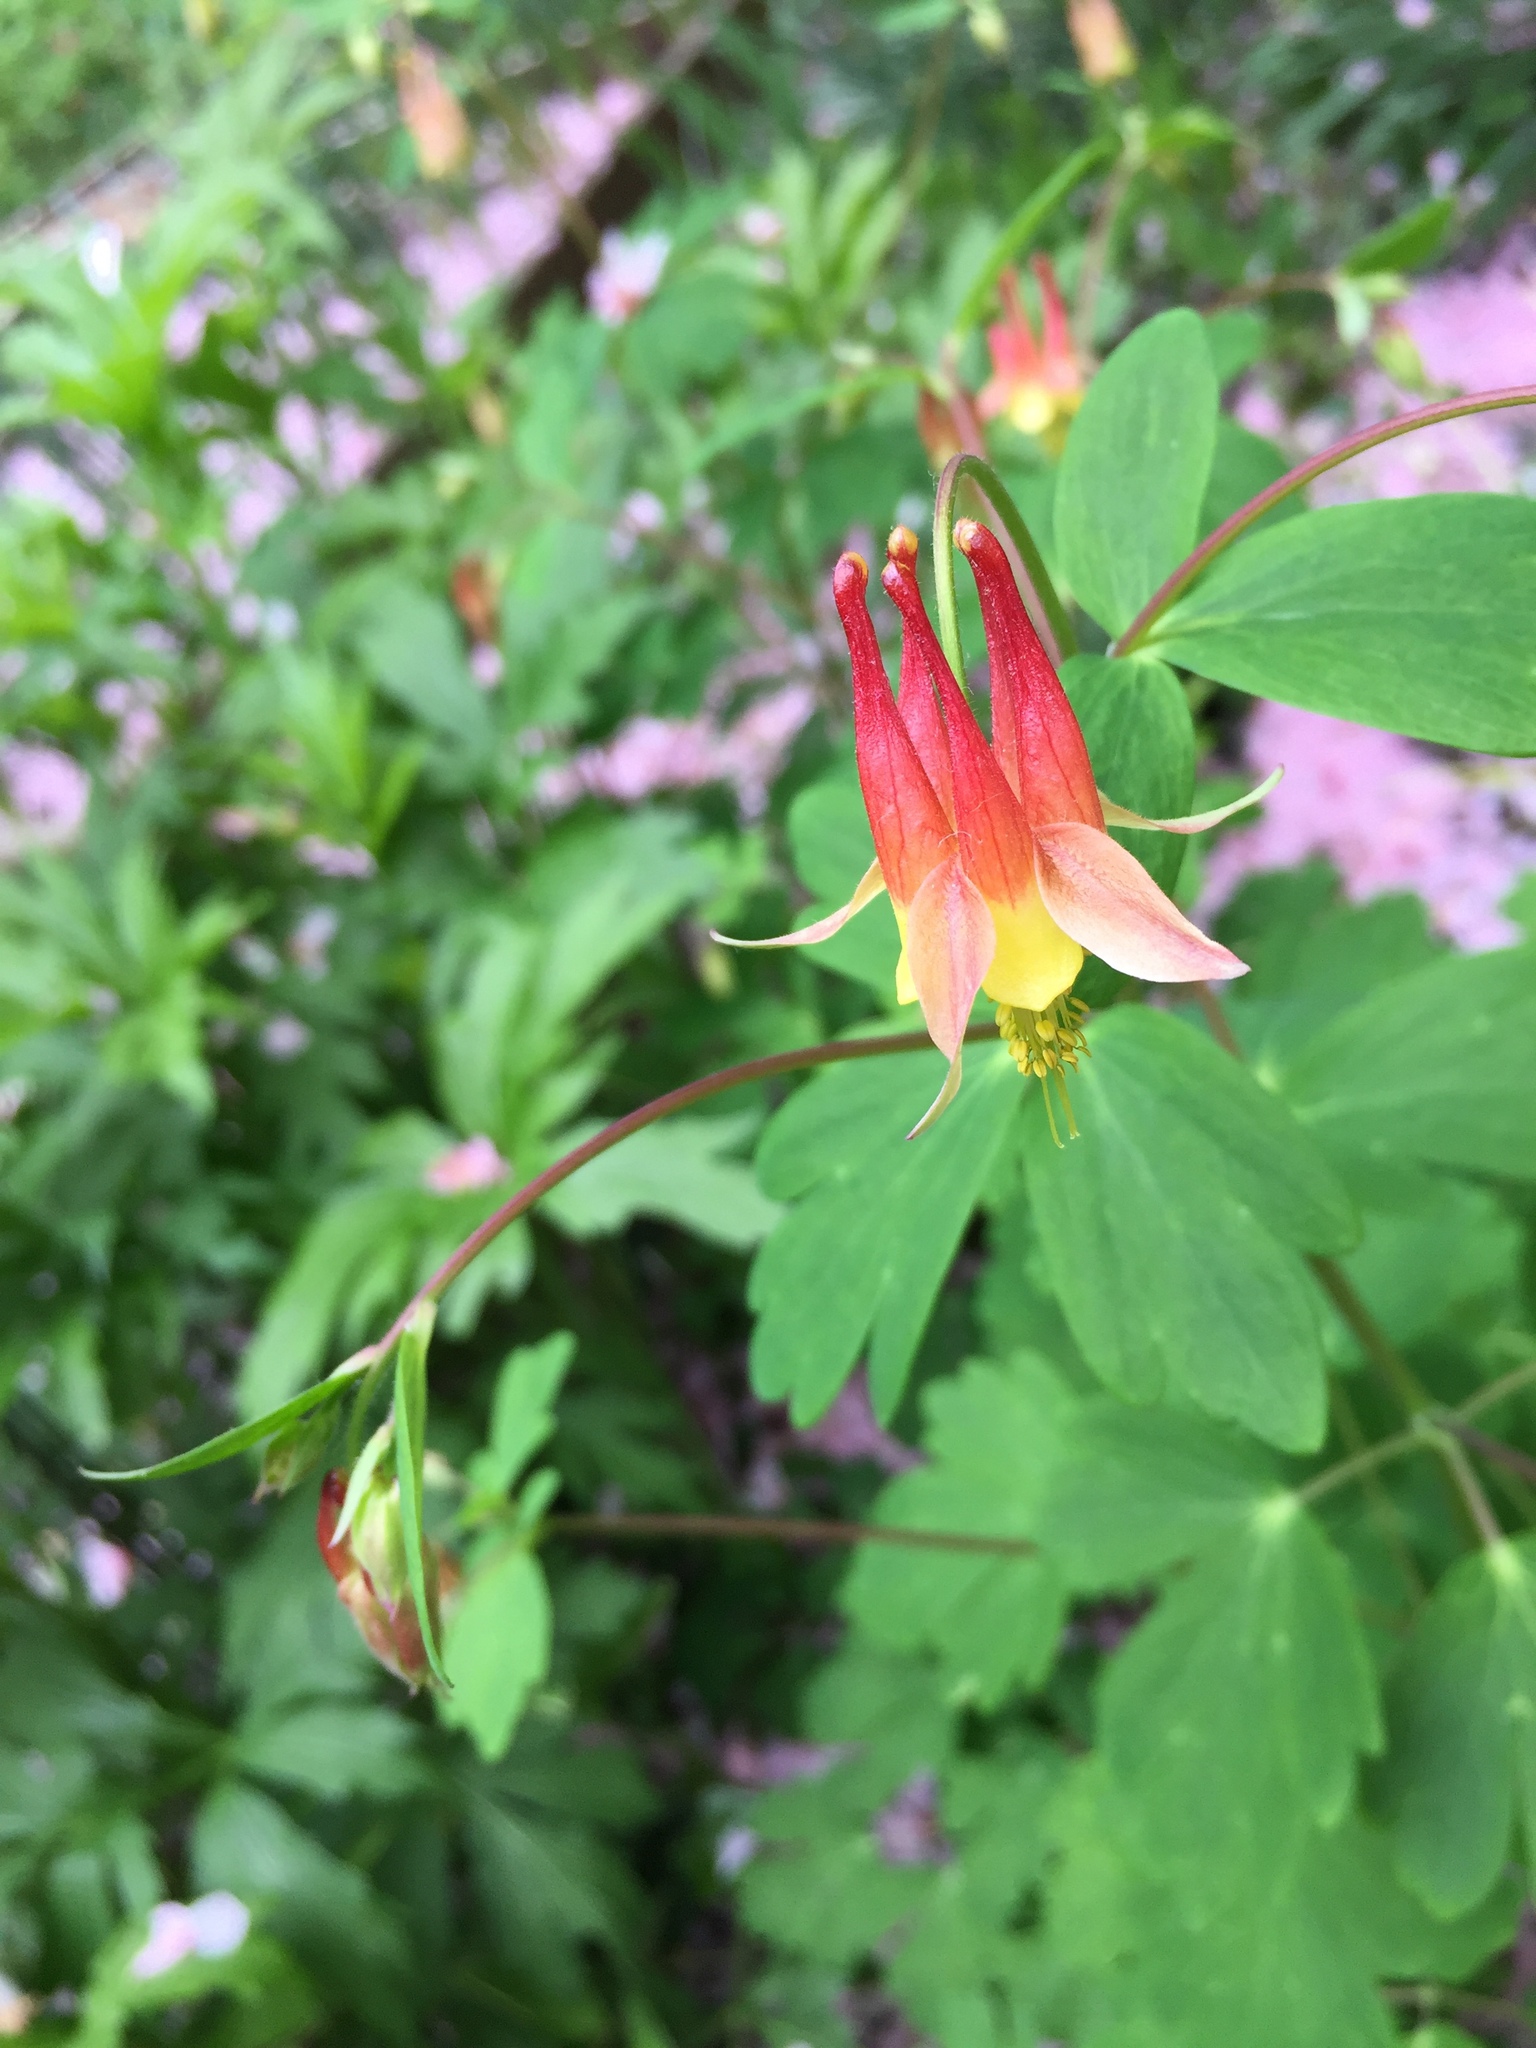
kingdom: Plantae
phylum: Tracheophyta
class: Magnoliopsida
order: Ranunculales
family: Ranunculaceae
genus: Aquilegia
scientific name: Aquilegia canadensis
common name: American columbine
